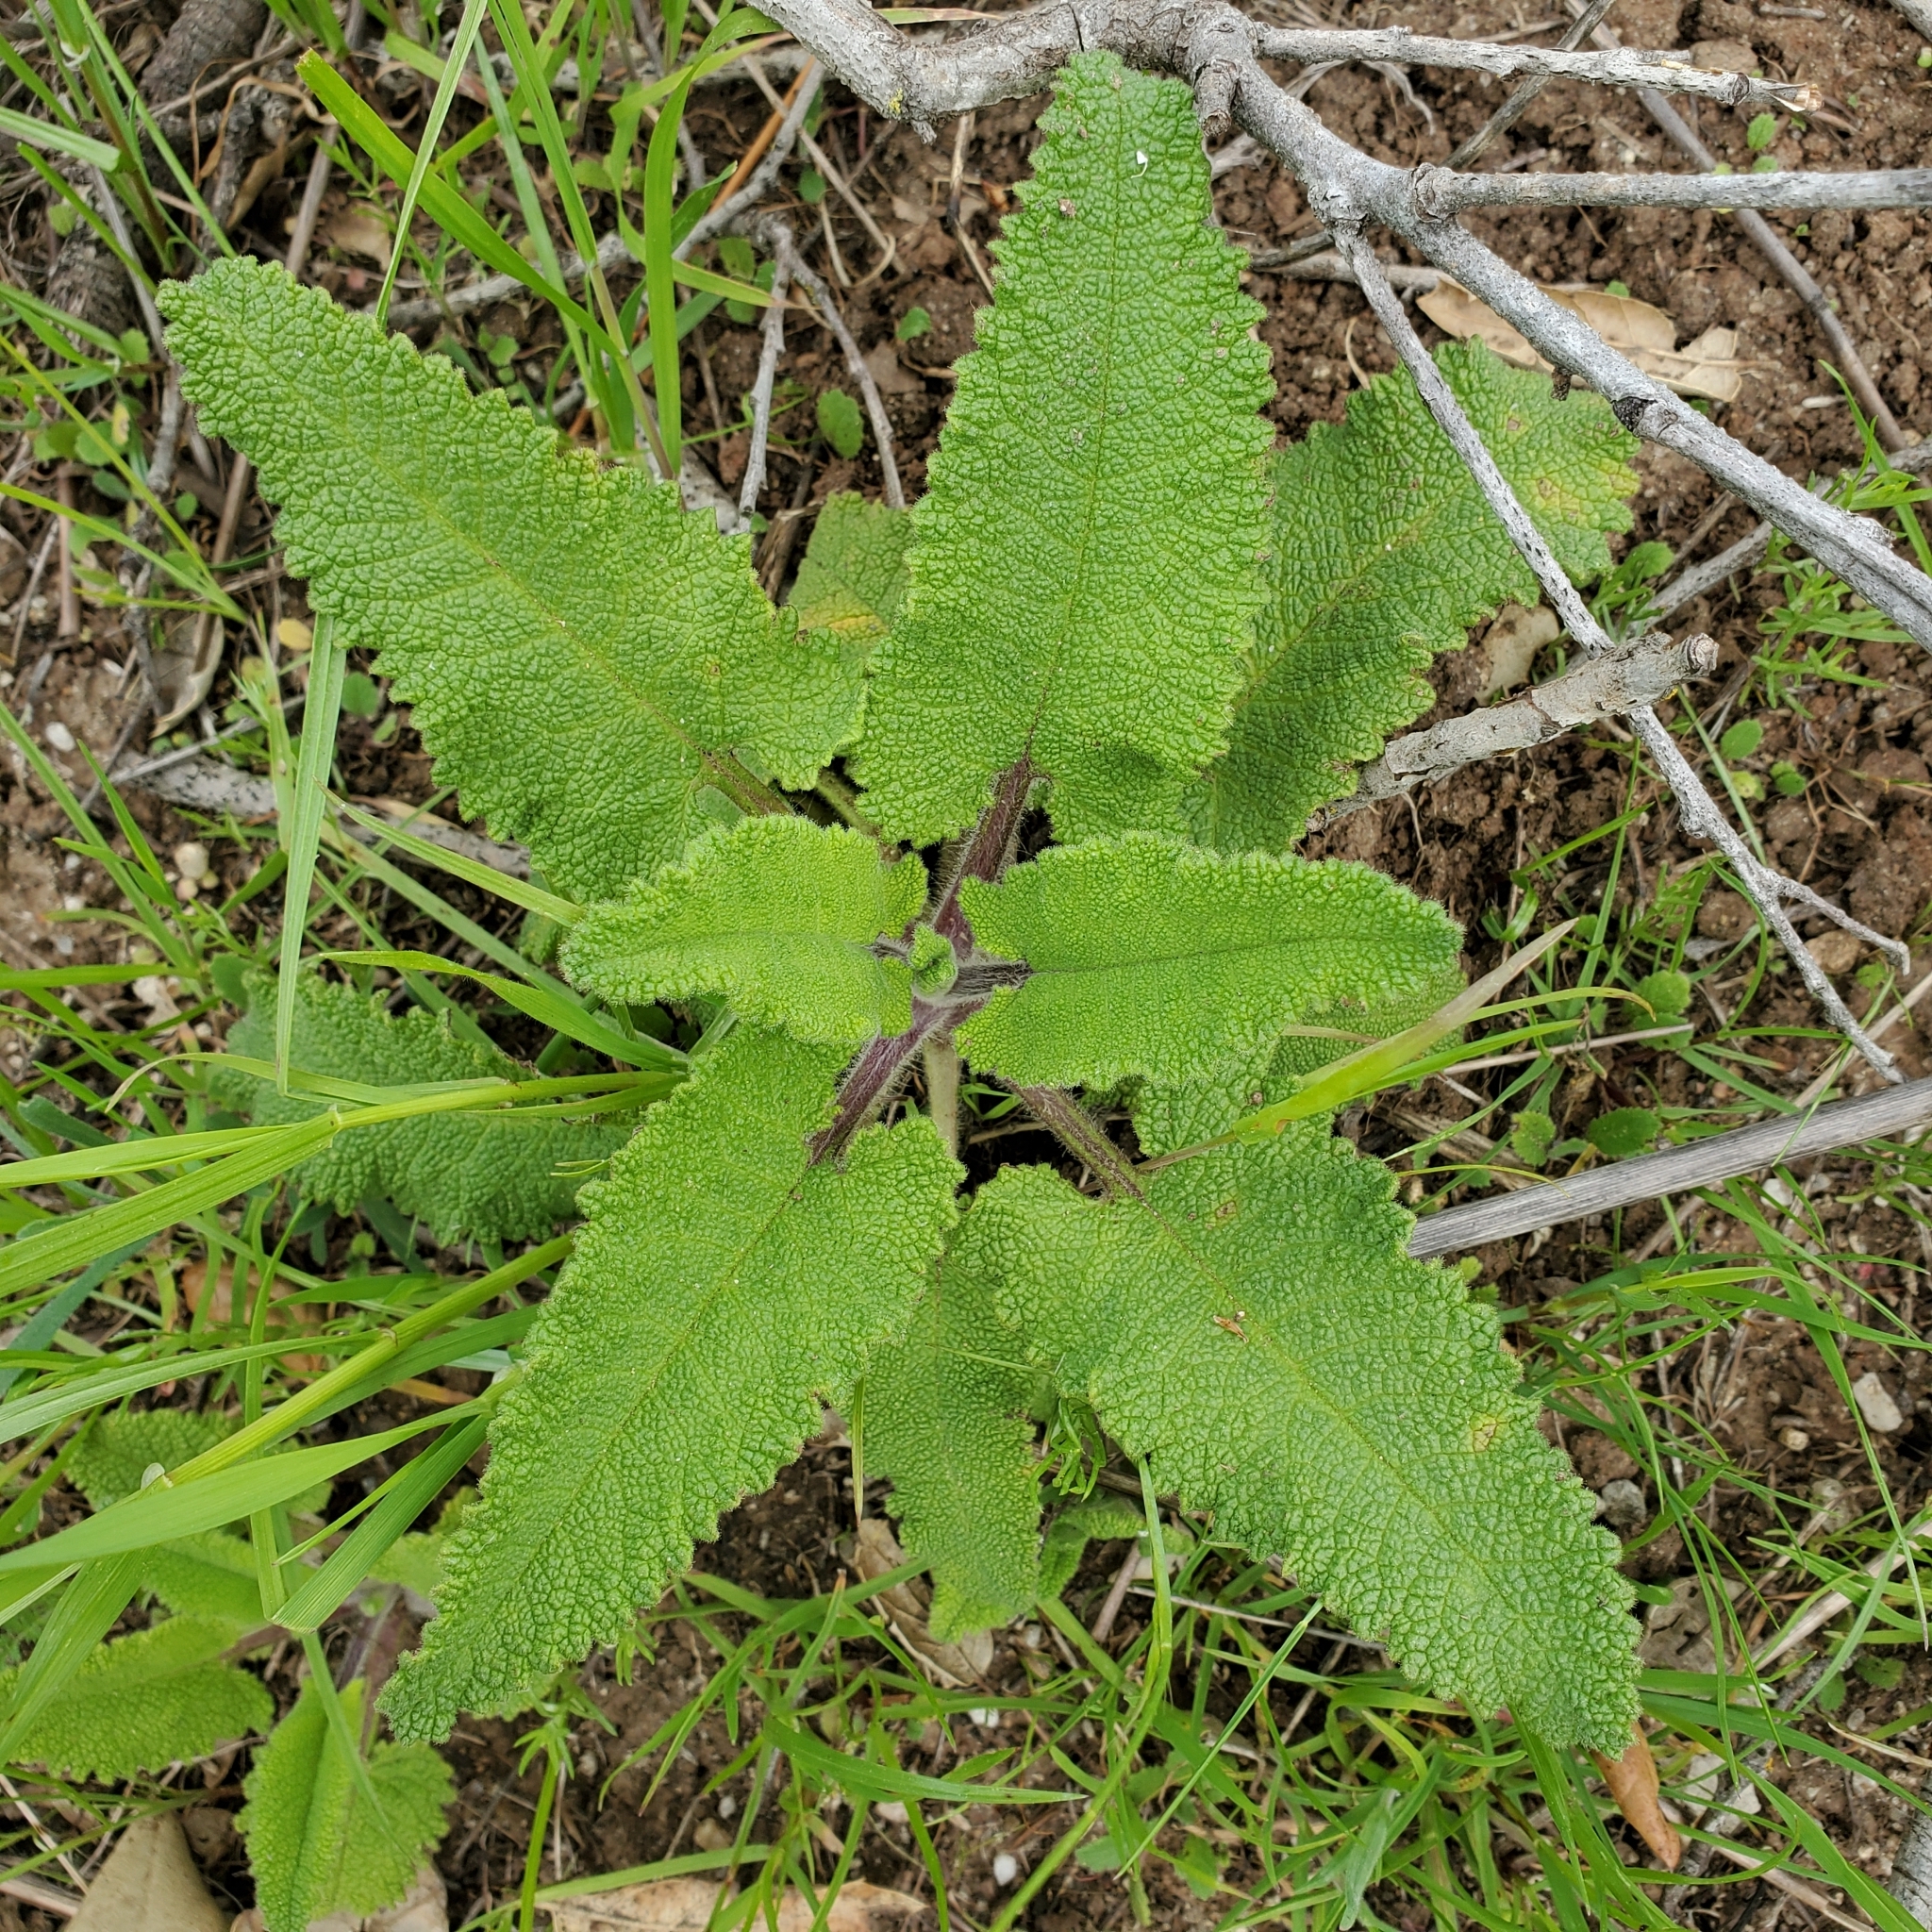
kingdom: Plantae
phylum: Tracheophyta
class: Magnoliopsida
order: Lamiales
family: Lamiaceae
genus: Salvia
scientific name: Salvia spathacea
